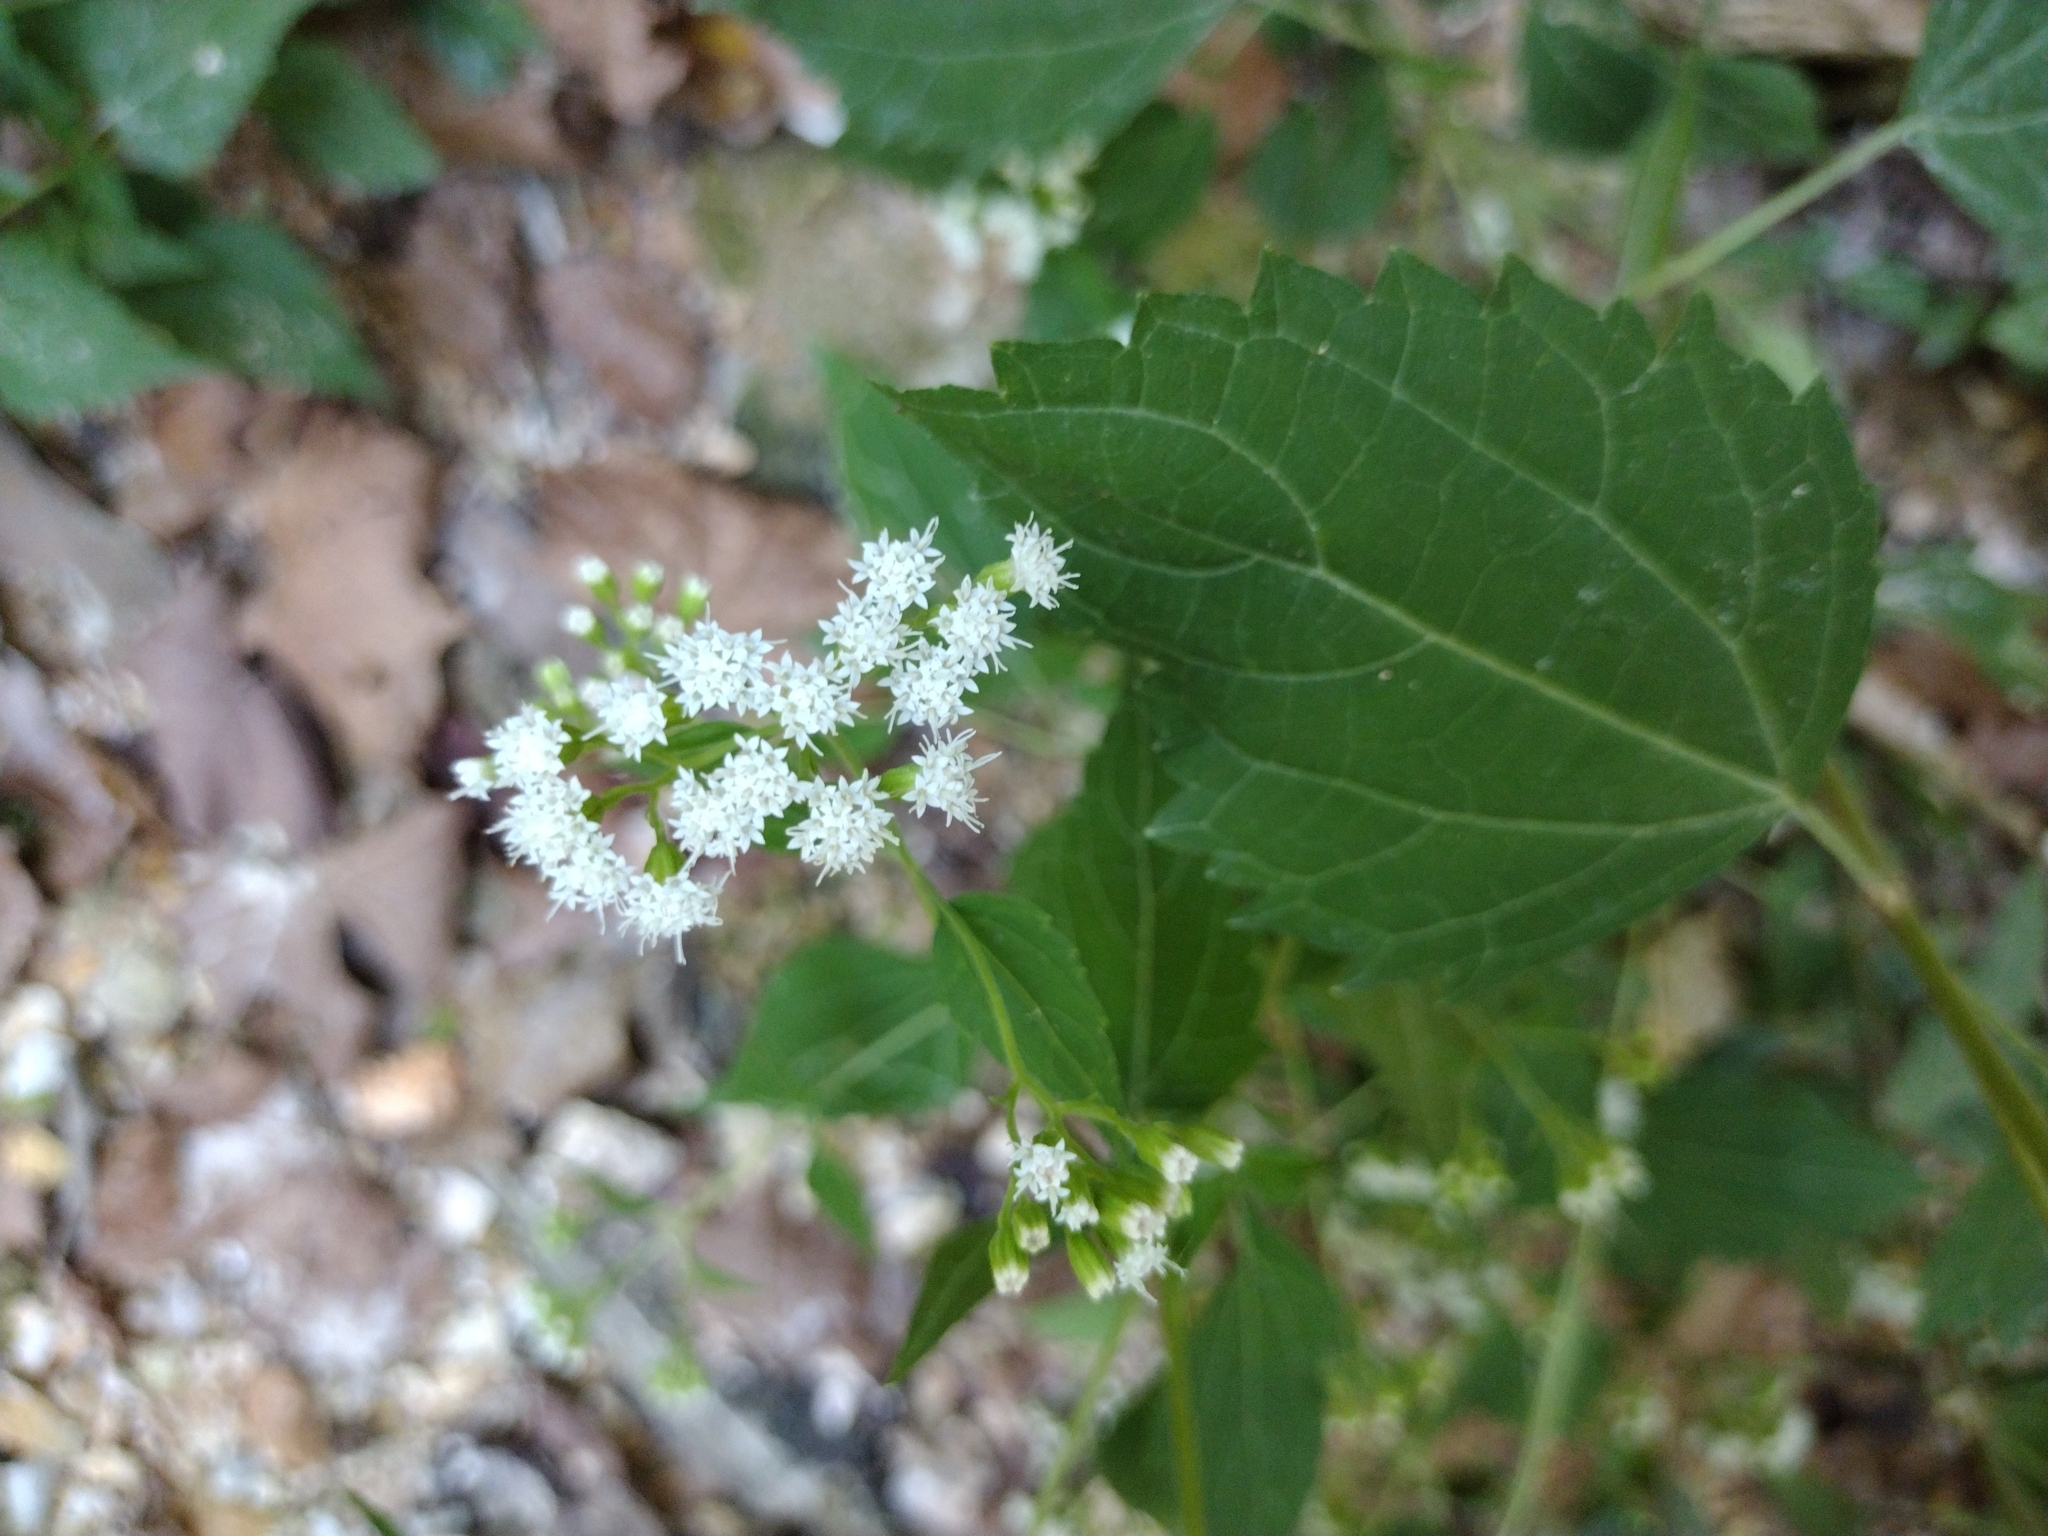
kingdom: Plantae
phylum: Tracheophyta
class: Magnoliopsida
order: Asterales
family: Asteraceae
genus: Ageratina
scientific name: Ageratina altissima
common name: White snakeroot
